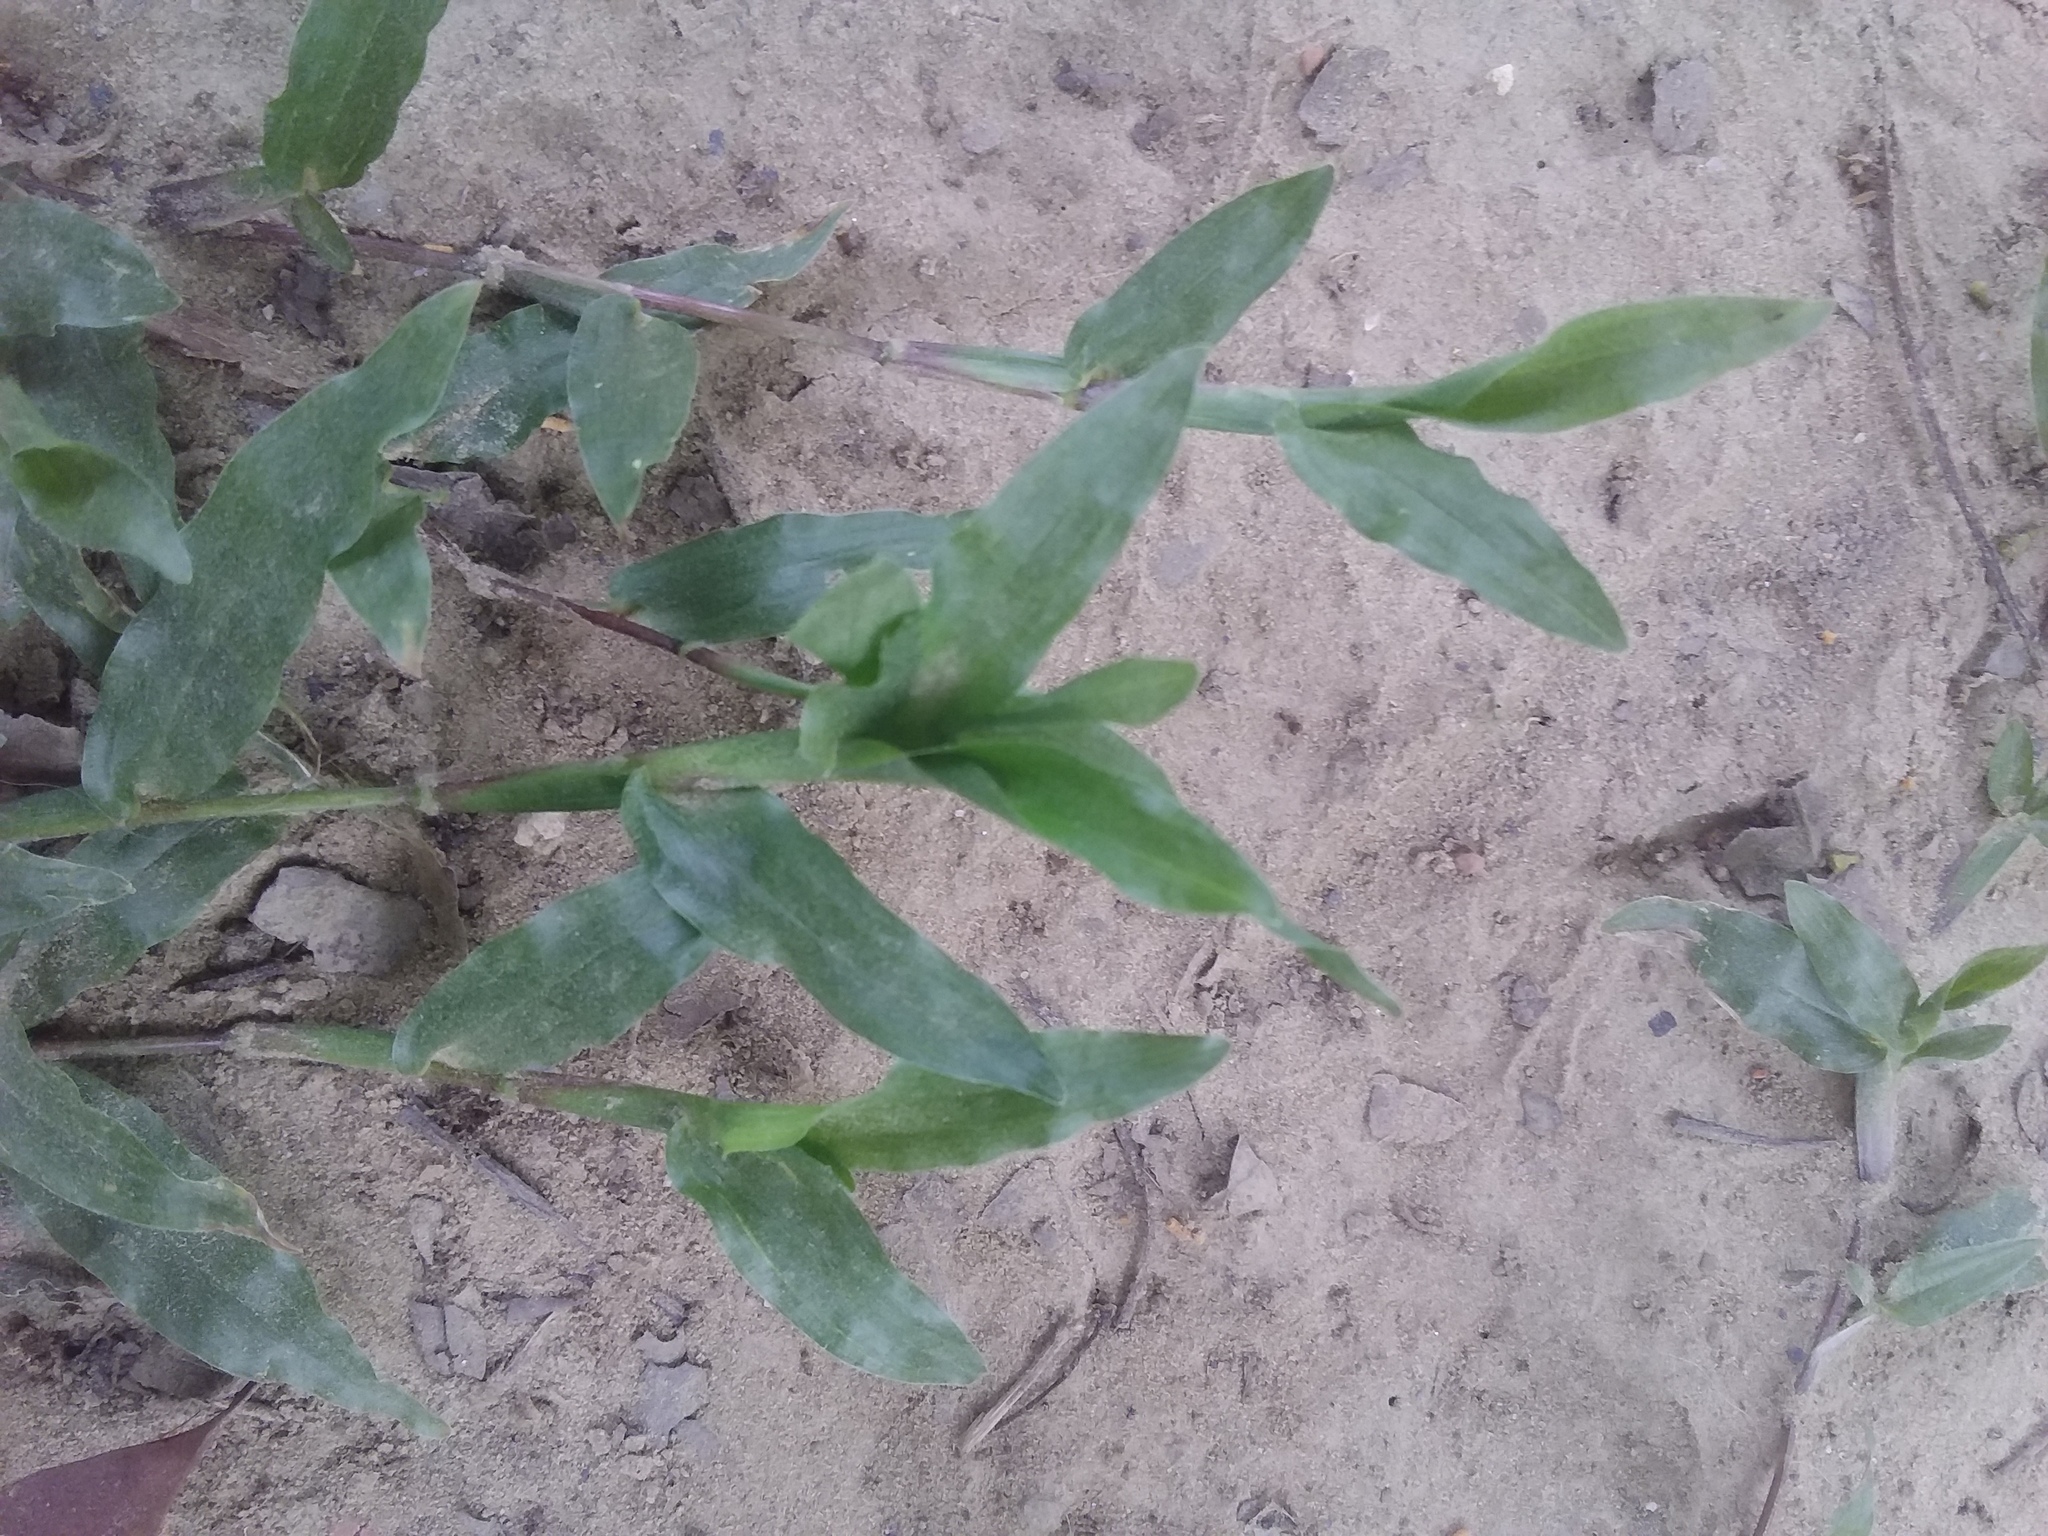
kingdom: Plantae
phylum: Tracheophyta
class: Liliopsida
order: Poales
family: Poaceae
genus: Axonopus
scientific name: Axonopus compressus
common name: American carpet grass
